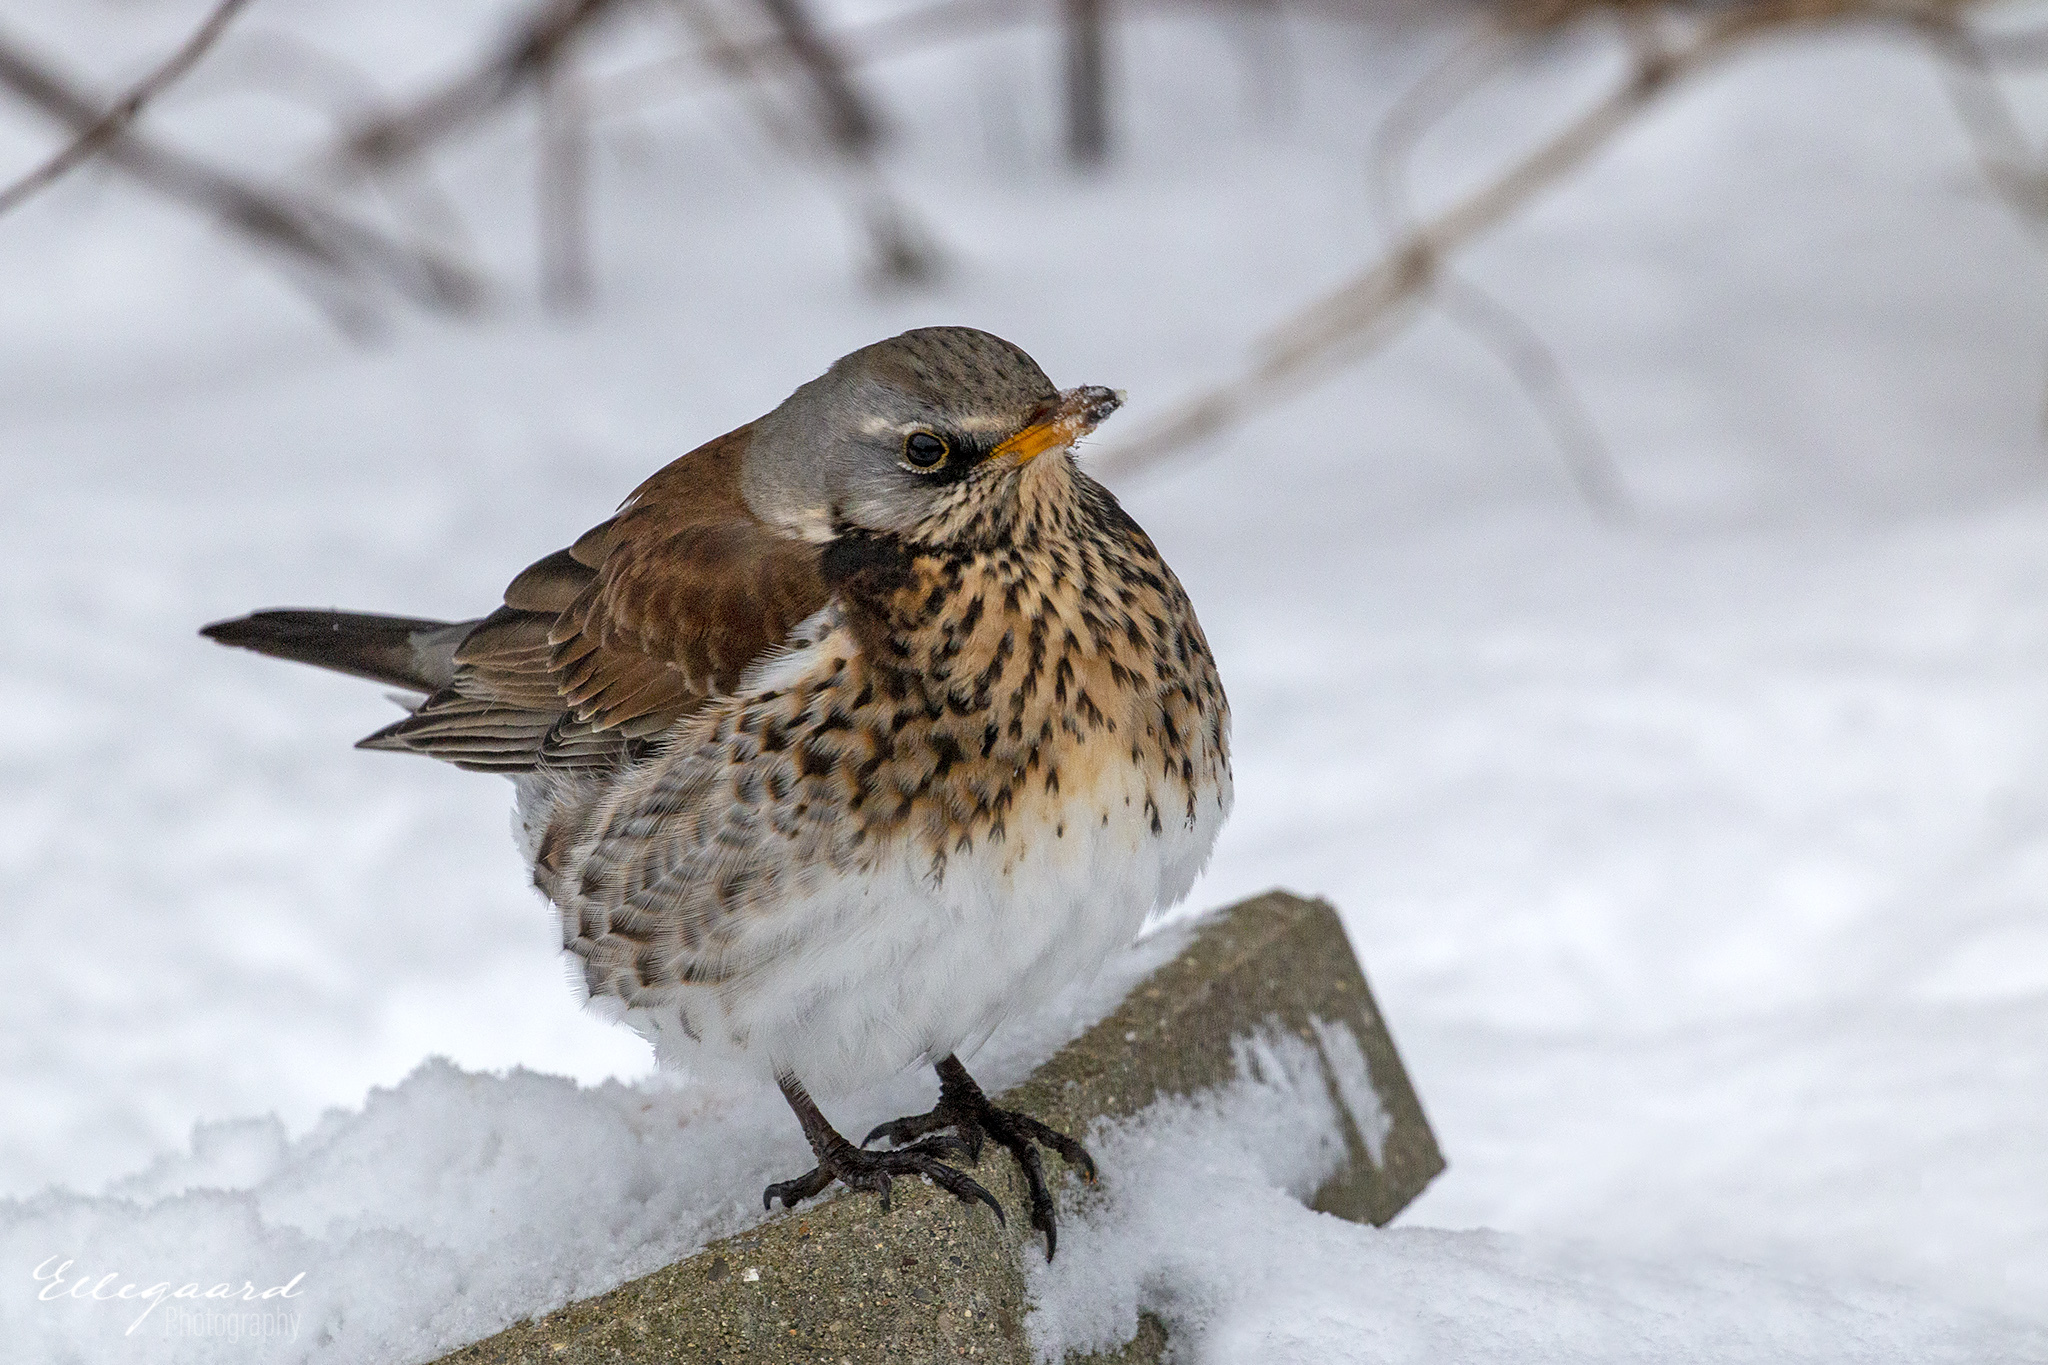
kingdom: Animalia
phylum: Chordata
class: Aves
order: Passeriformes
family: Turdidae
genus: Turdus
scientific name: Turdus pilaris
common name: Fieldfare
